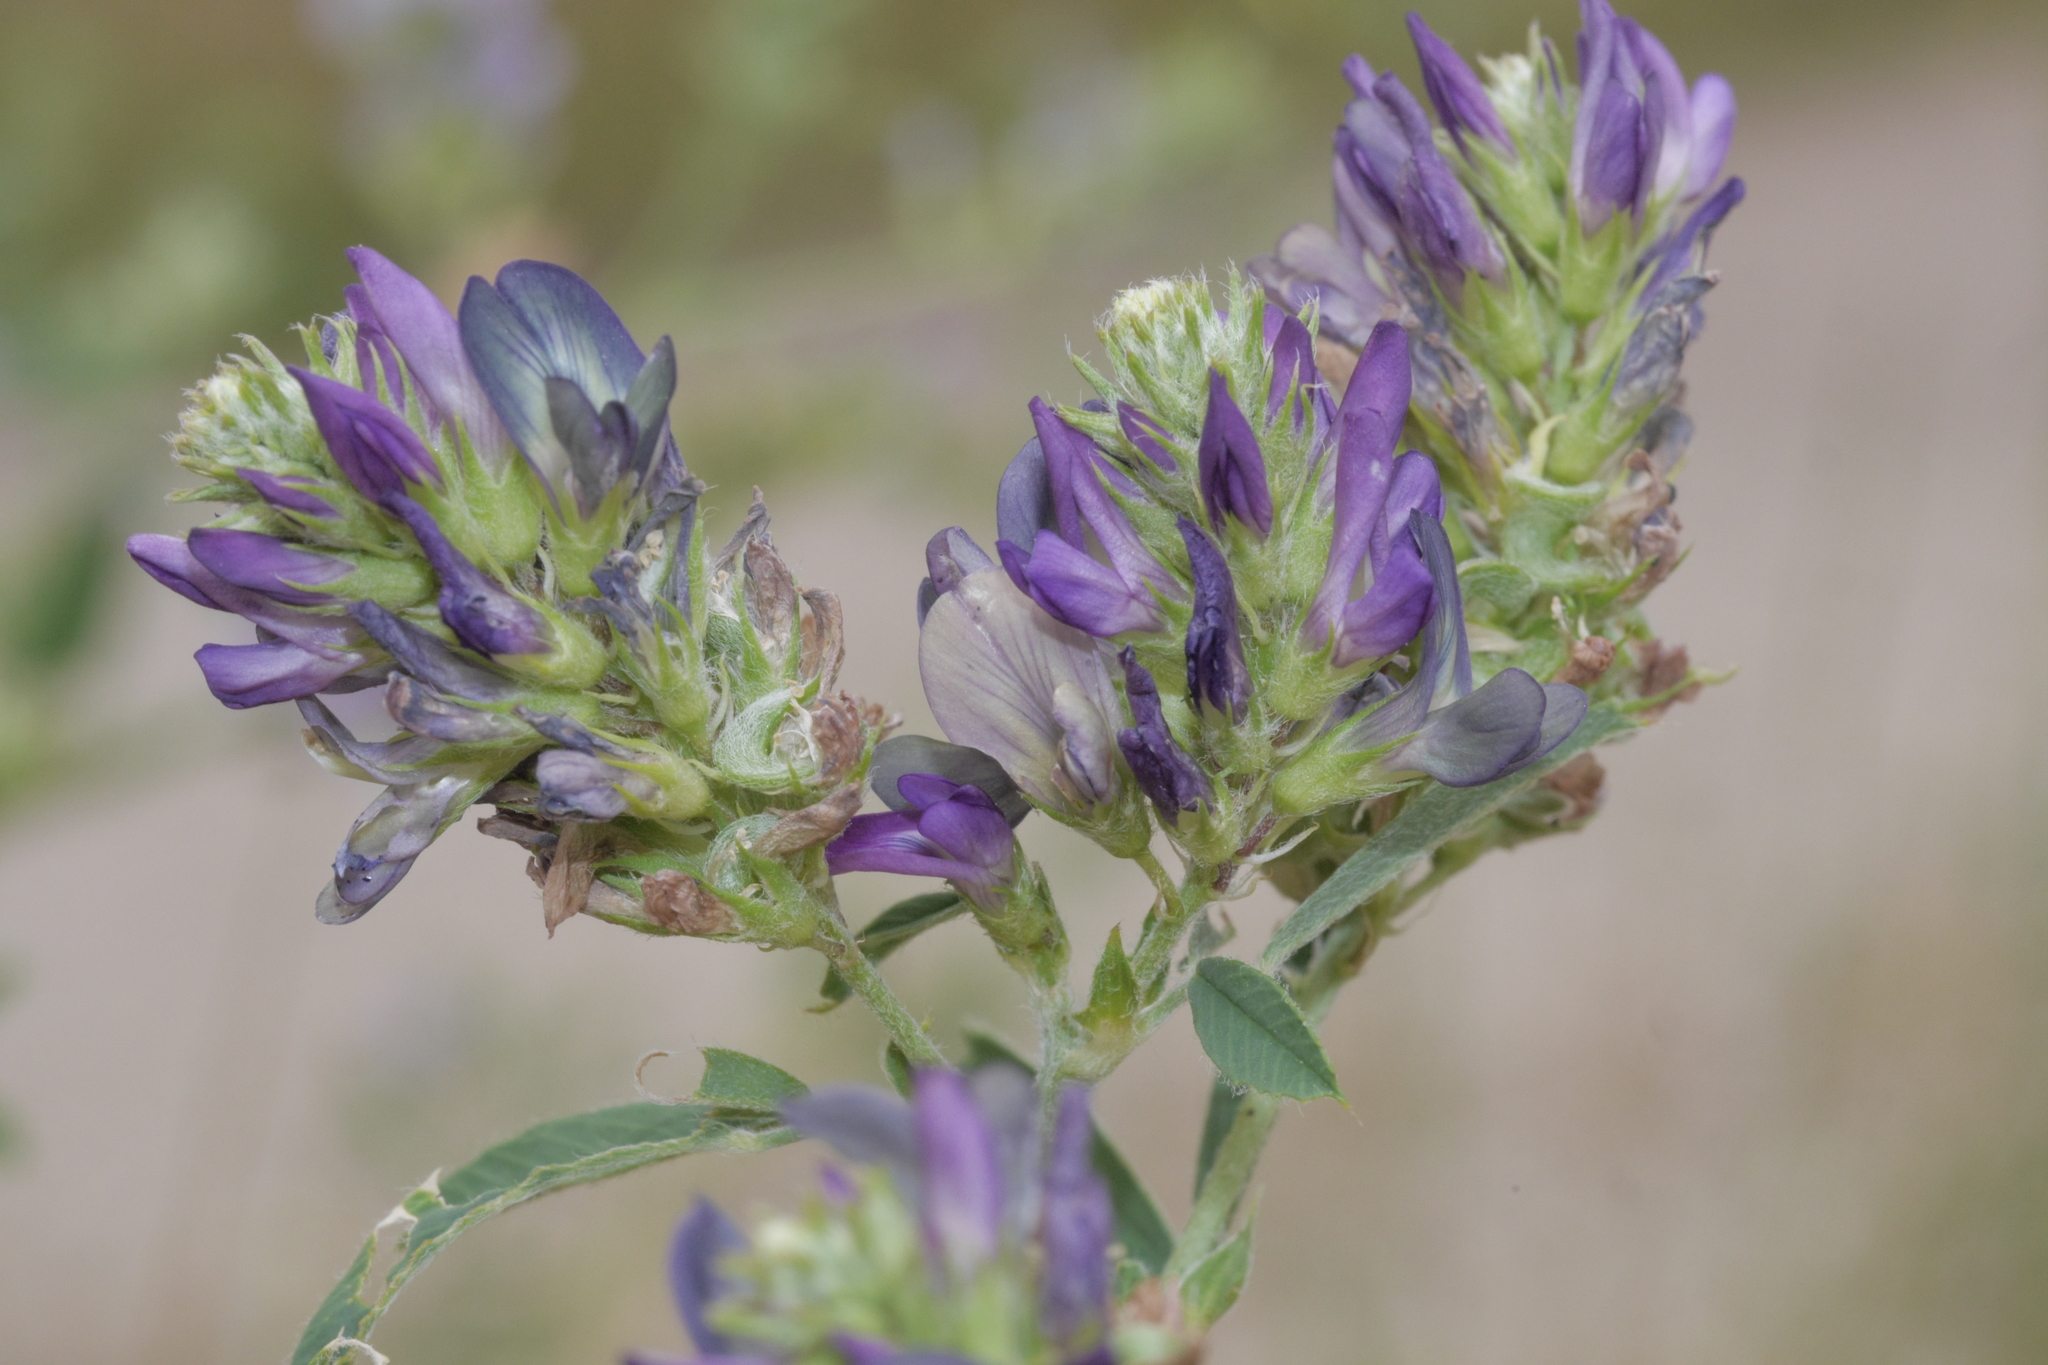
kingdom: Plantae
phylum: Tracheophyta
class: Magnoliopsida
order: Fabales
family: Fabaceae
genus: Medicago
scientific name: Medicago varia
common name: Sand lucerne
